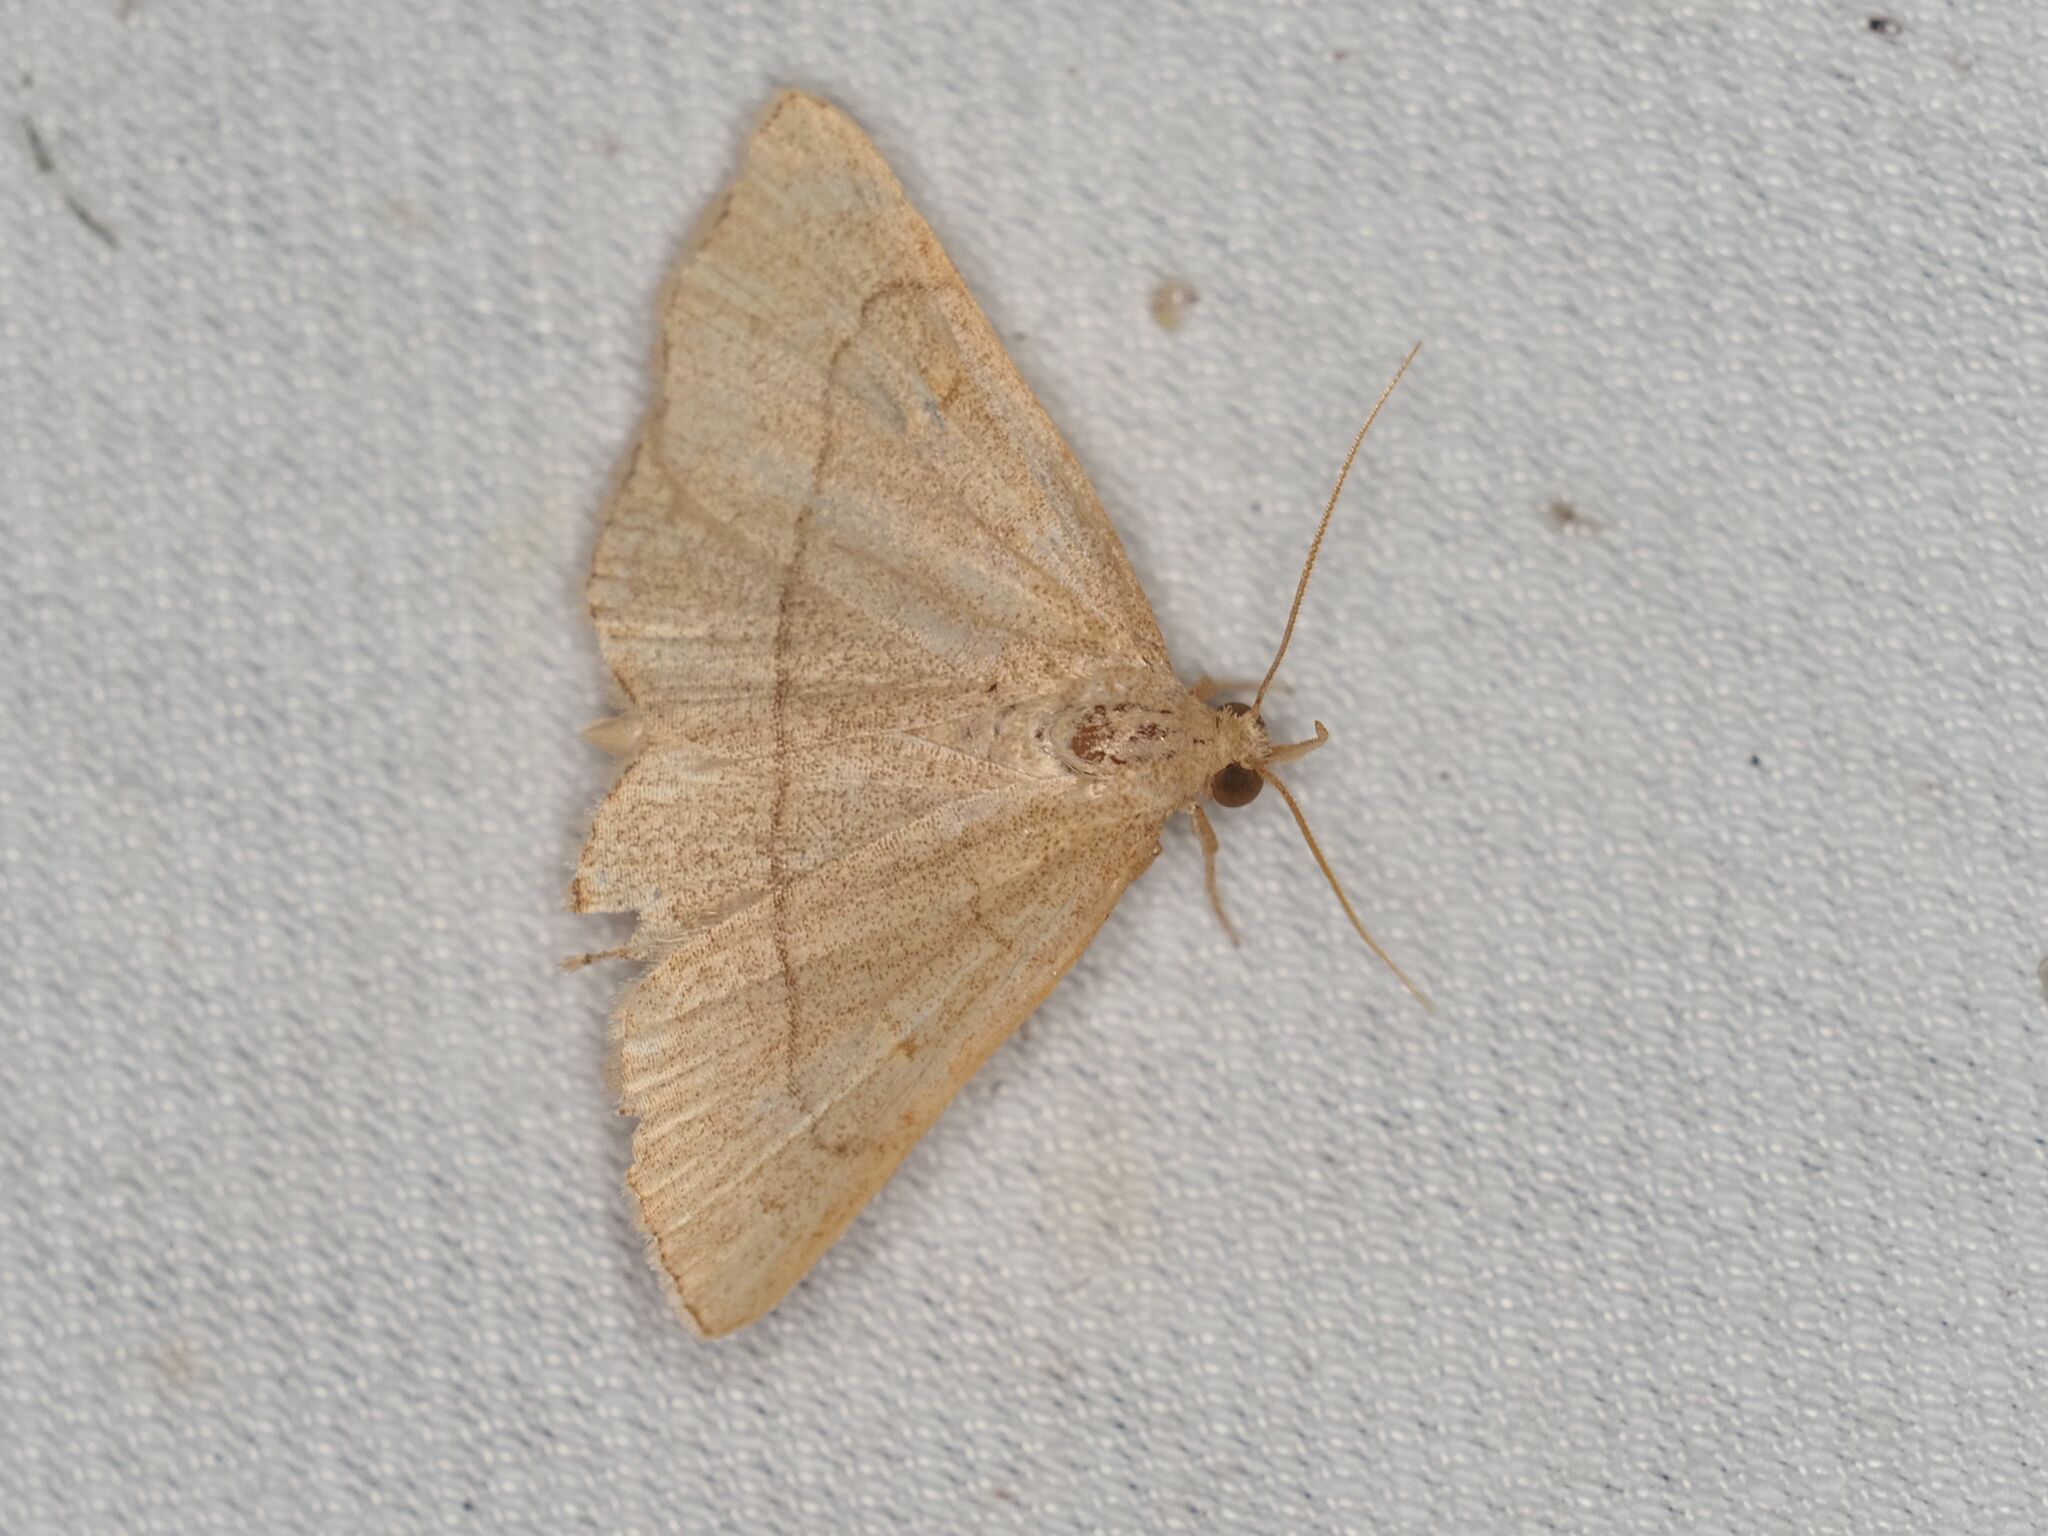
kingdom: Animalia
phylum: Arthropoda
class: Insecta
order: Lepidoptera
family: Erebidae
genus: Paracolax
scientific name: Paracolax tristalis
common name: Clay fan-foot
